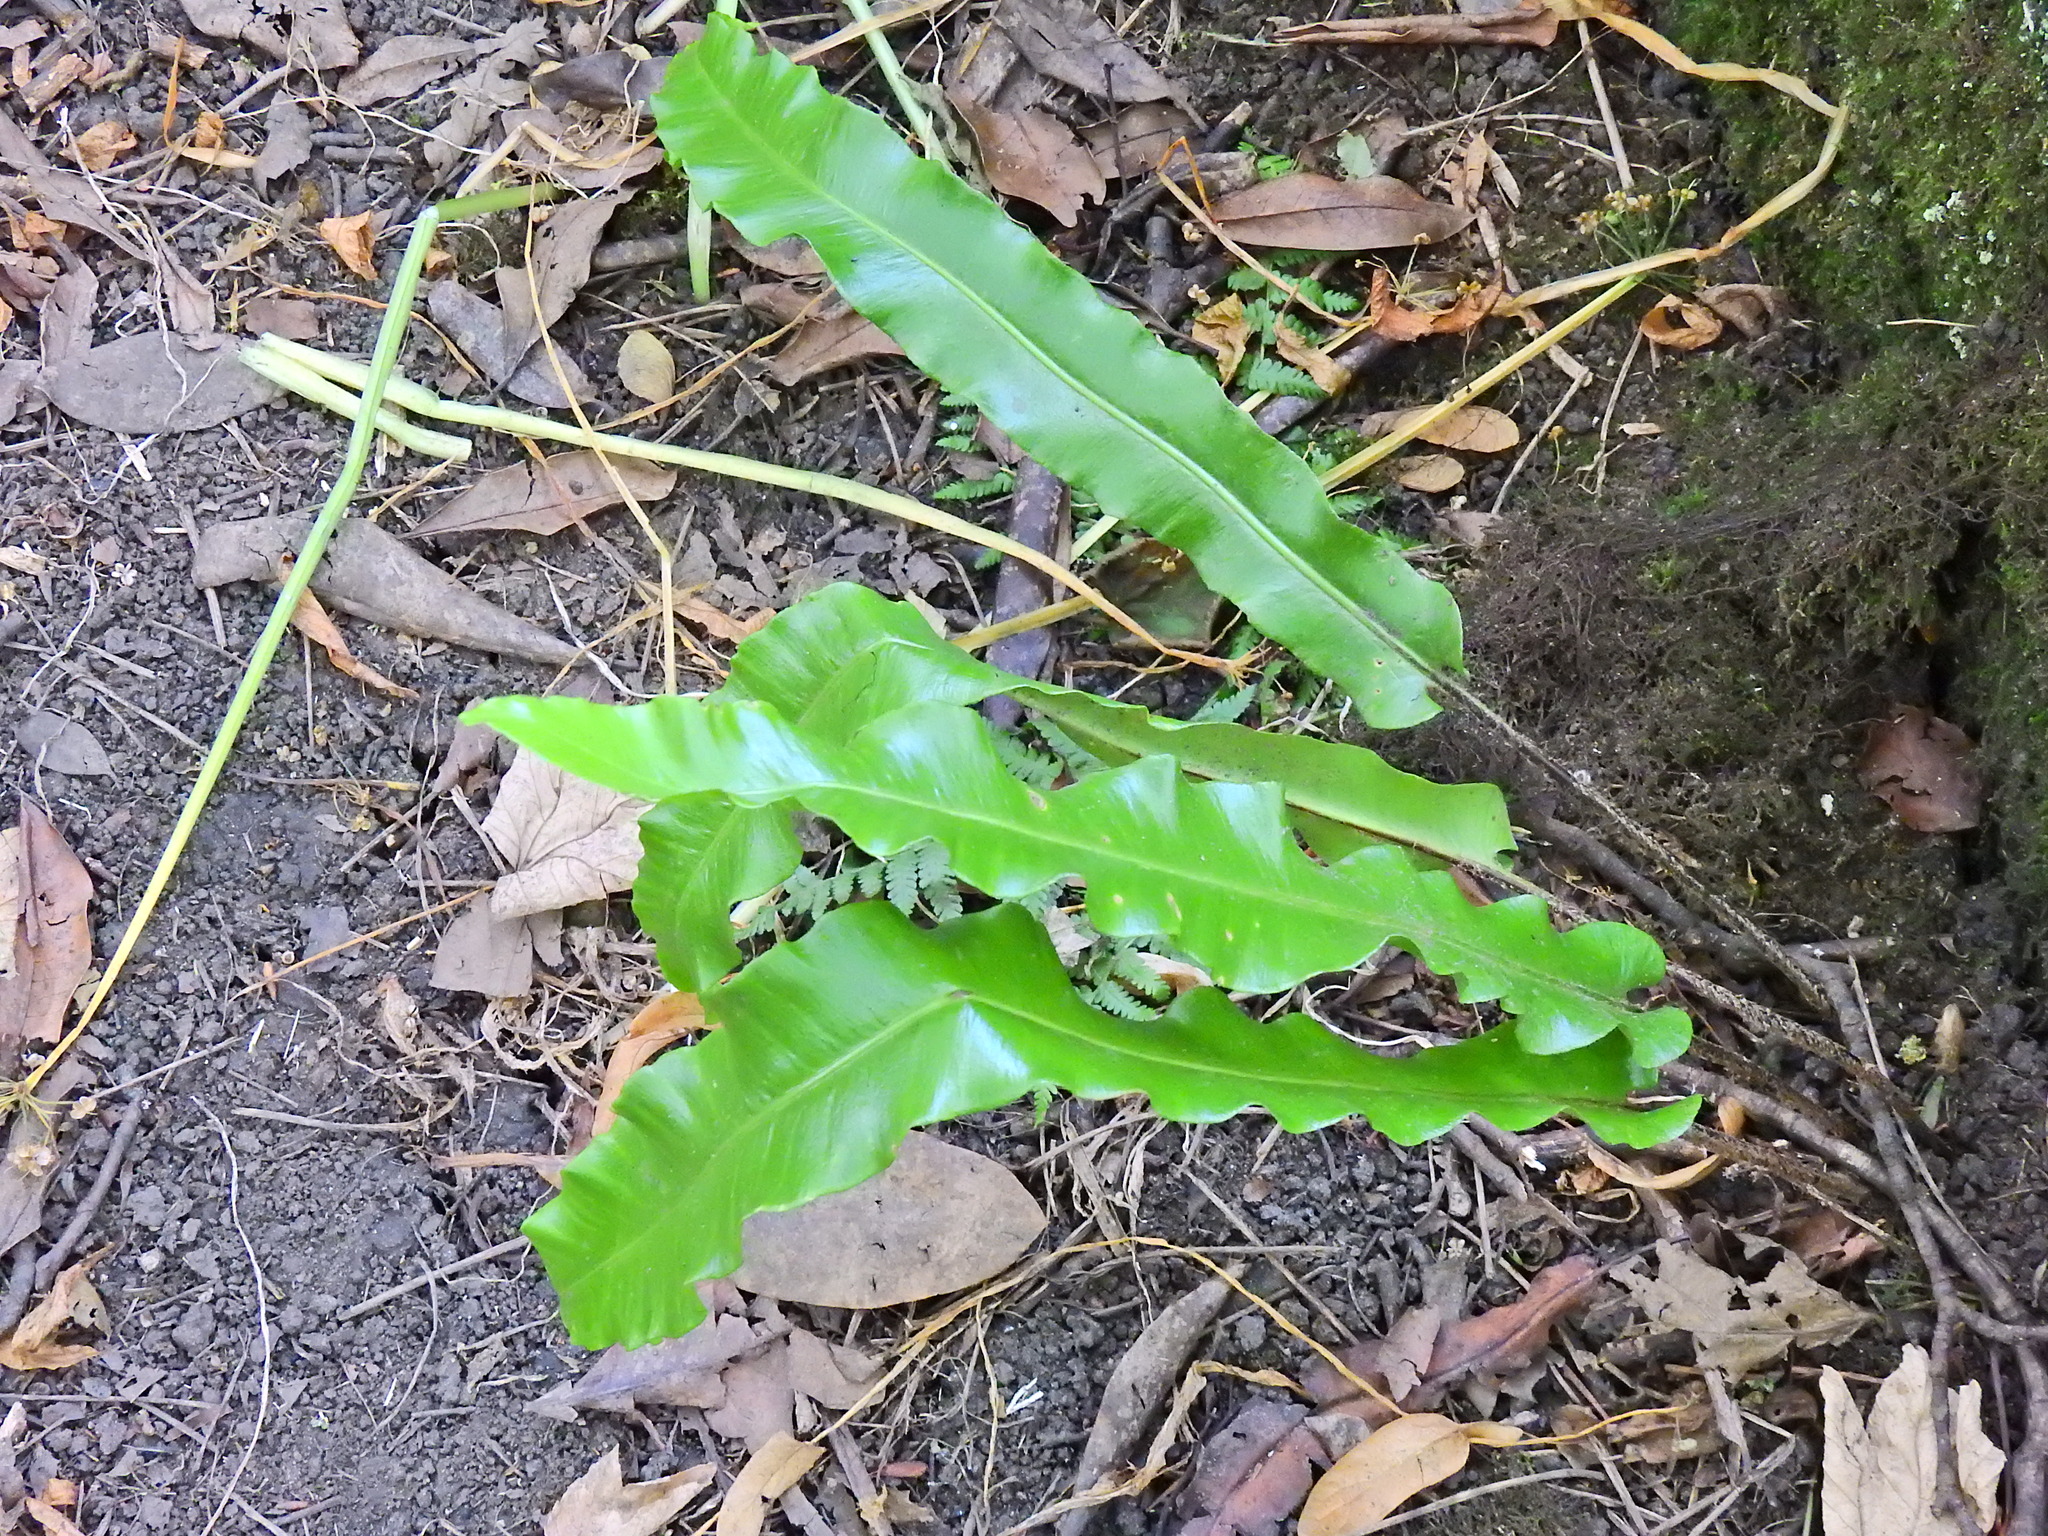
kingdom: Plantae
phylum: Tracheophyta
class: Polypodiopsida
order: Polypodiales
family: Aspleniaceae
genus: Asplenium
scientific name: Asplenium scolopendrium
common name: Hart's-tongue fern
